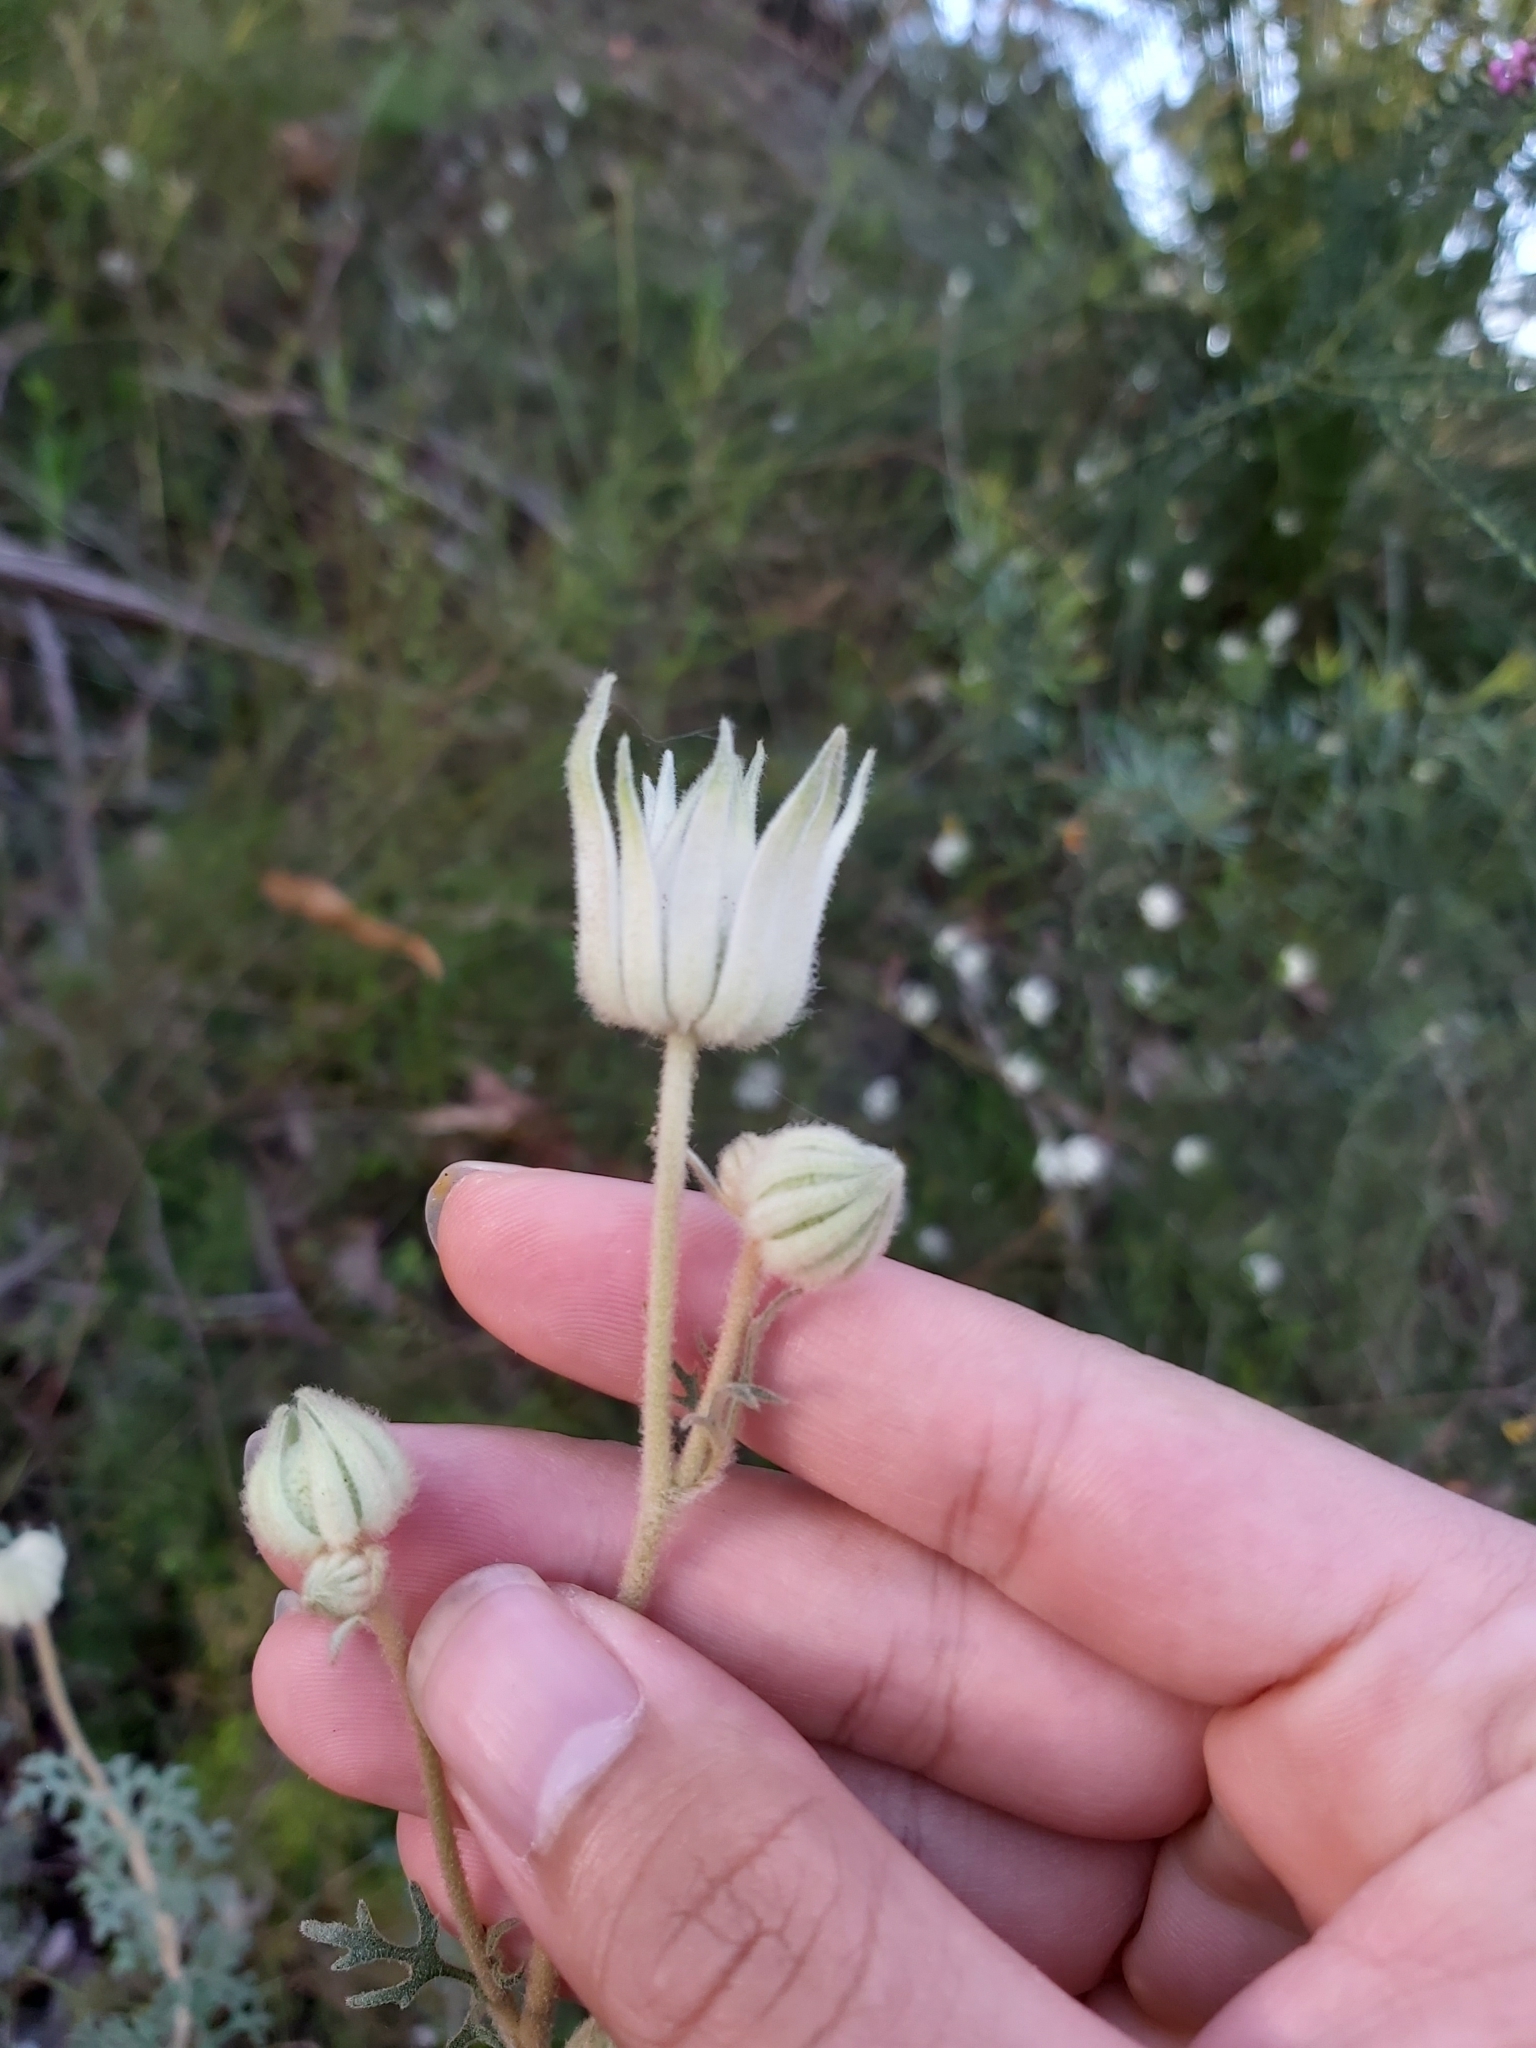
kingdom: Plantae
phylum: Tracheophyta
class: Magnoliopsida
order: Apiales
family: Apiaceae
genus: Actinotus
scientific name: Actinotus helianthi
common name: Flannel-flower
